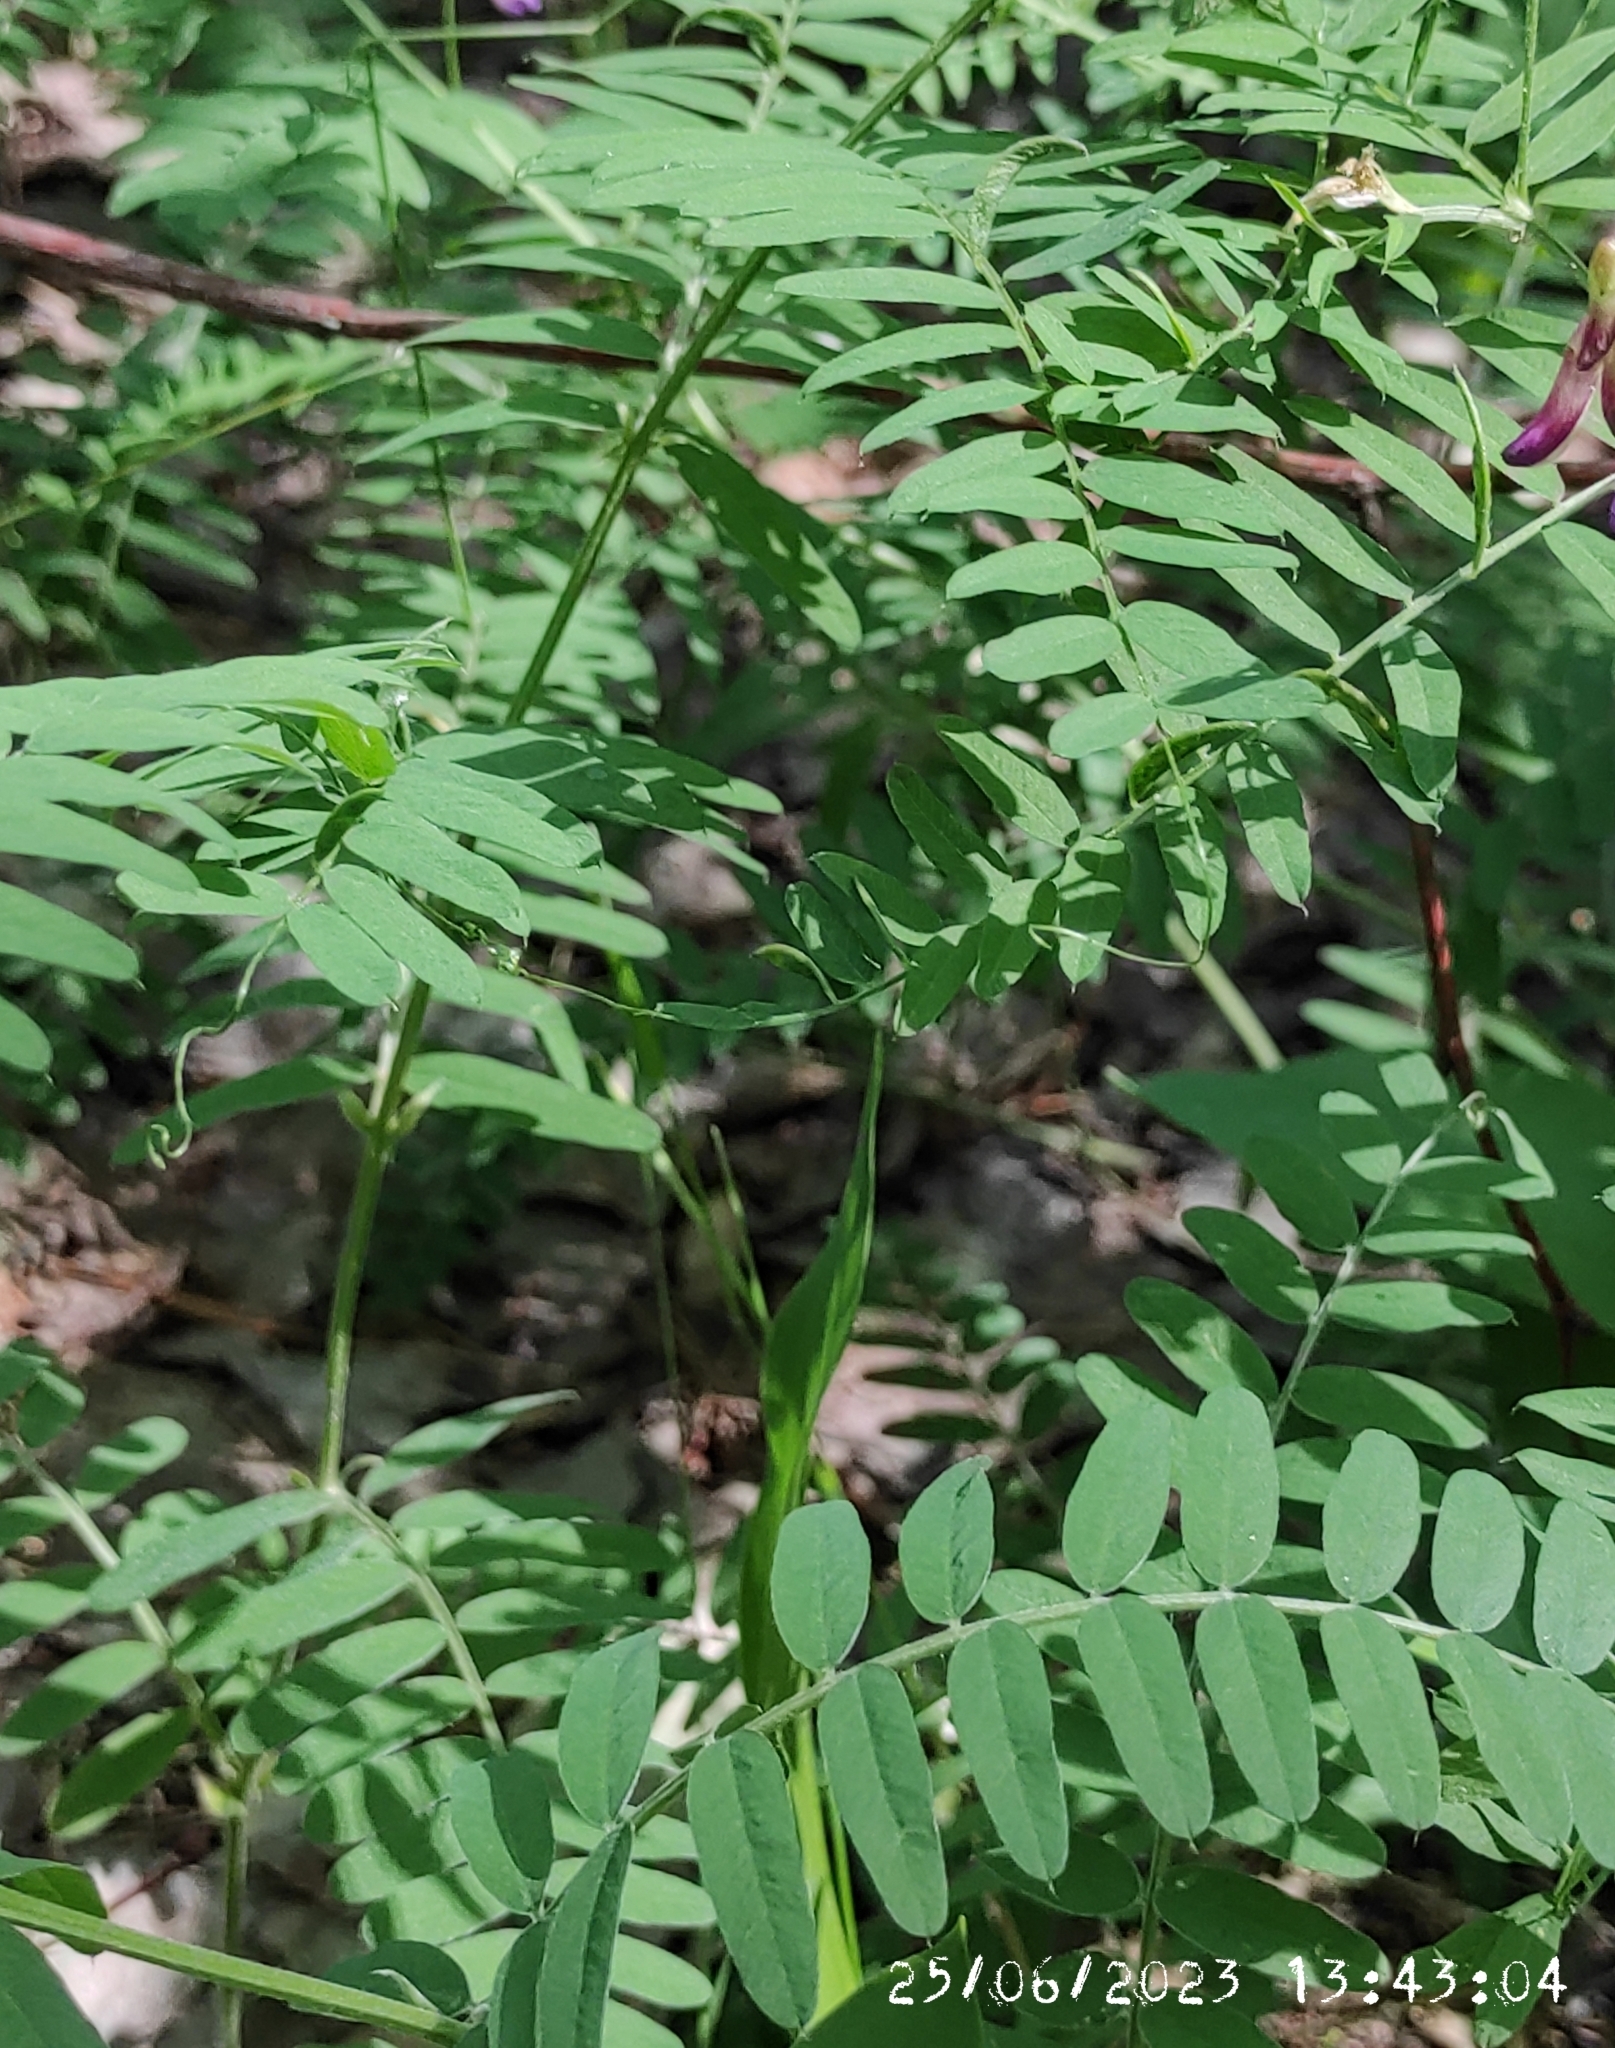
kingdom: Plantae
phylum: Tracheophyta
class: Magnoliopsida
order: Fabales
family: Fabaceae
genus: Vicia
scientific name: Vicia cracca
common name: Bird vetch
